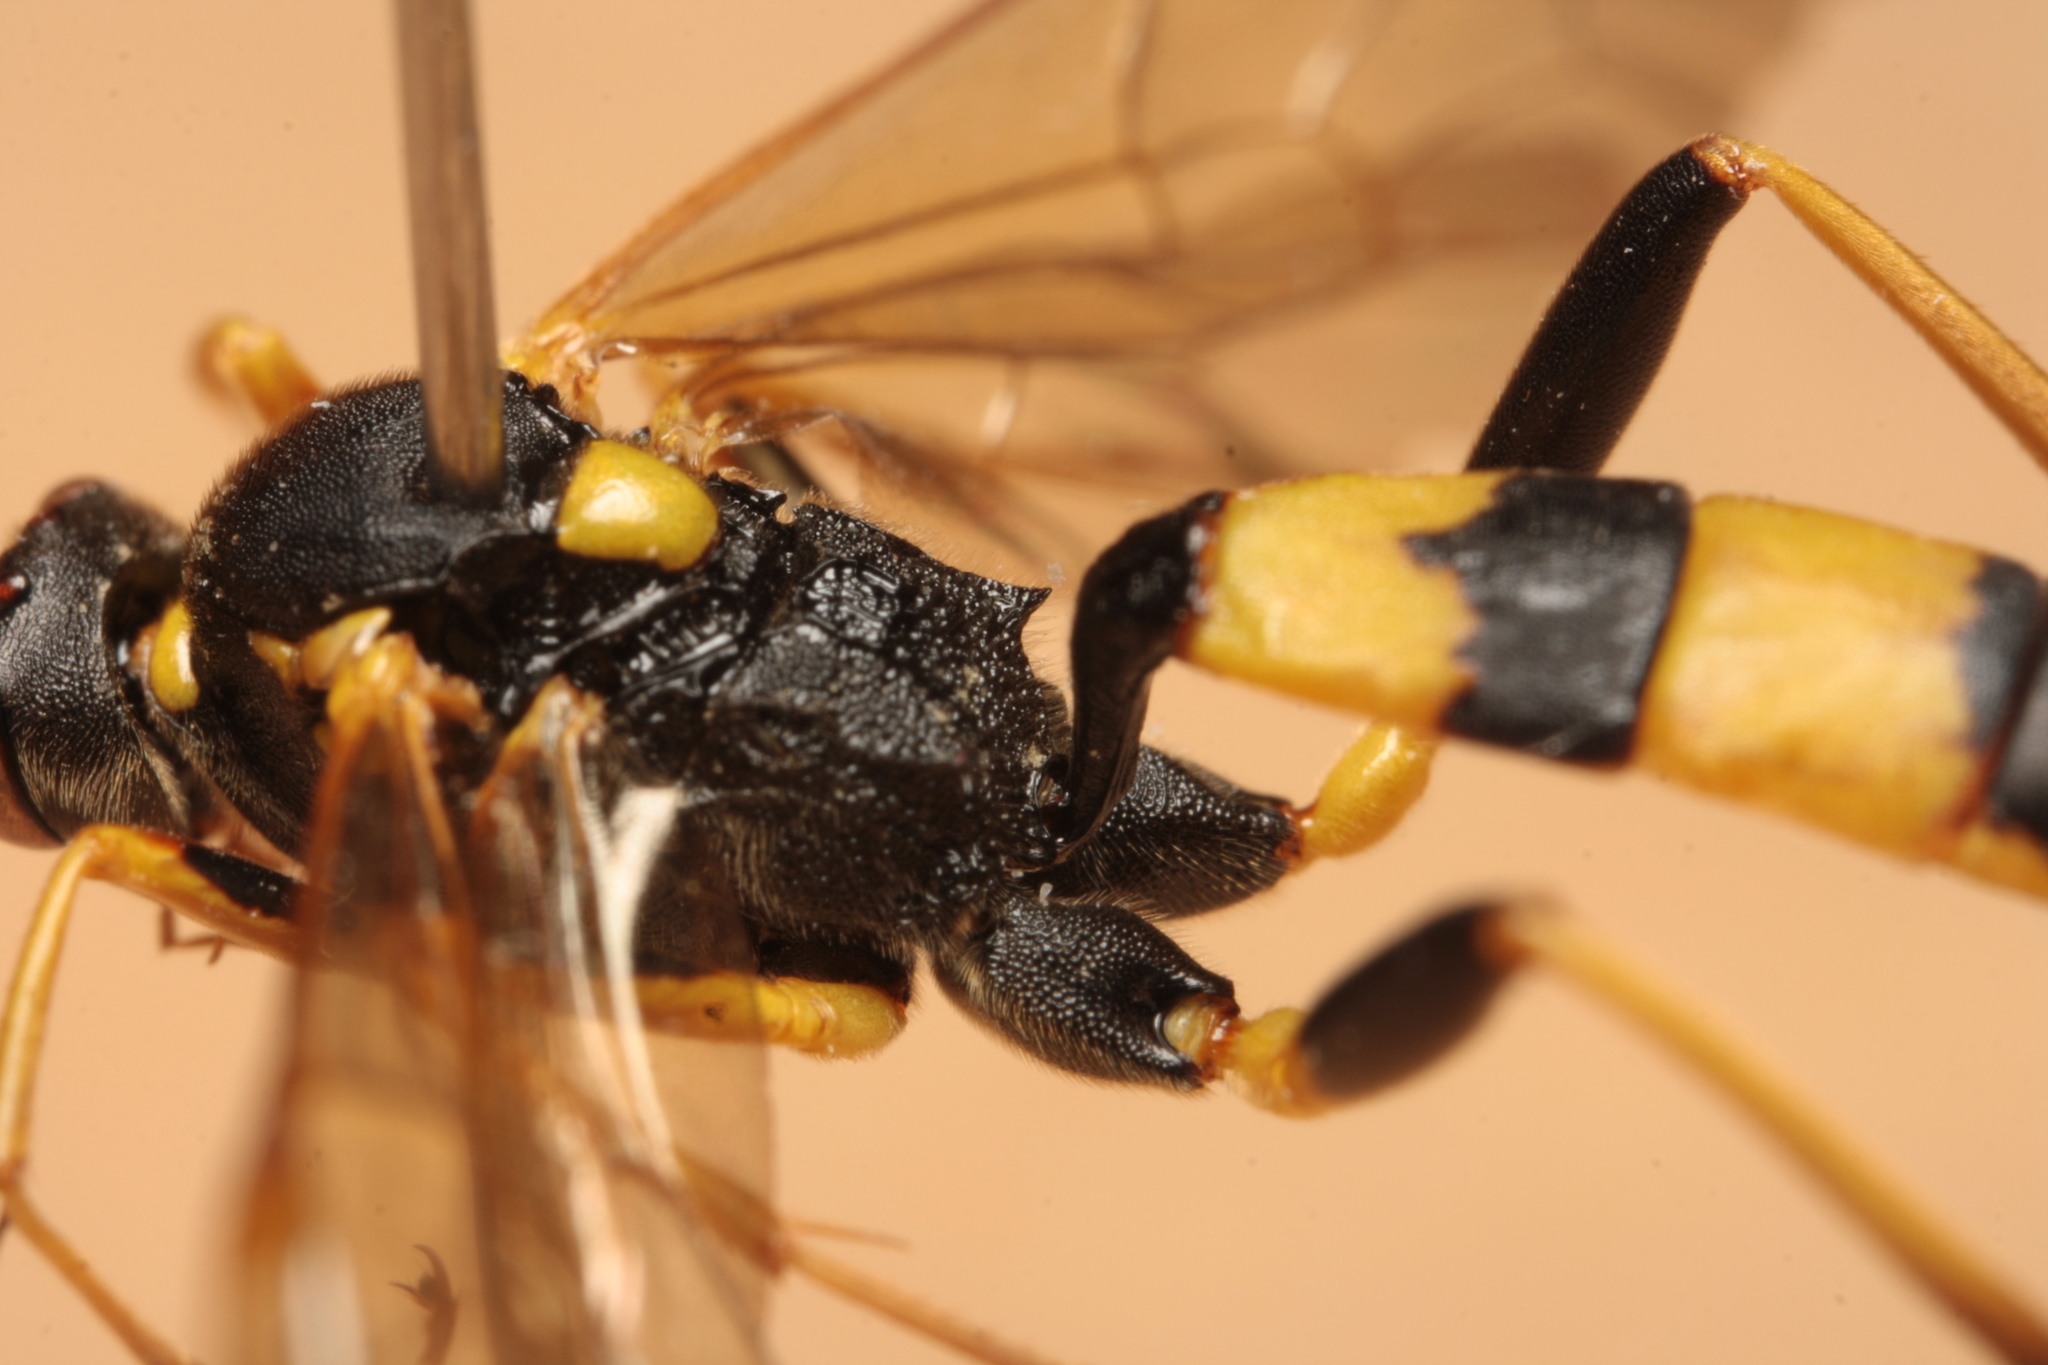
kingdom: Animalia
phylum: Arthropoda
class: Insecta
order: Hymenoptera
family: Ichneumonidae
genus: Amblyteles
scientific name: Amblyteles armatorius
